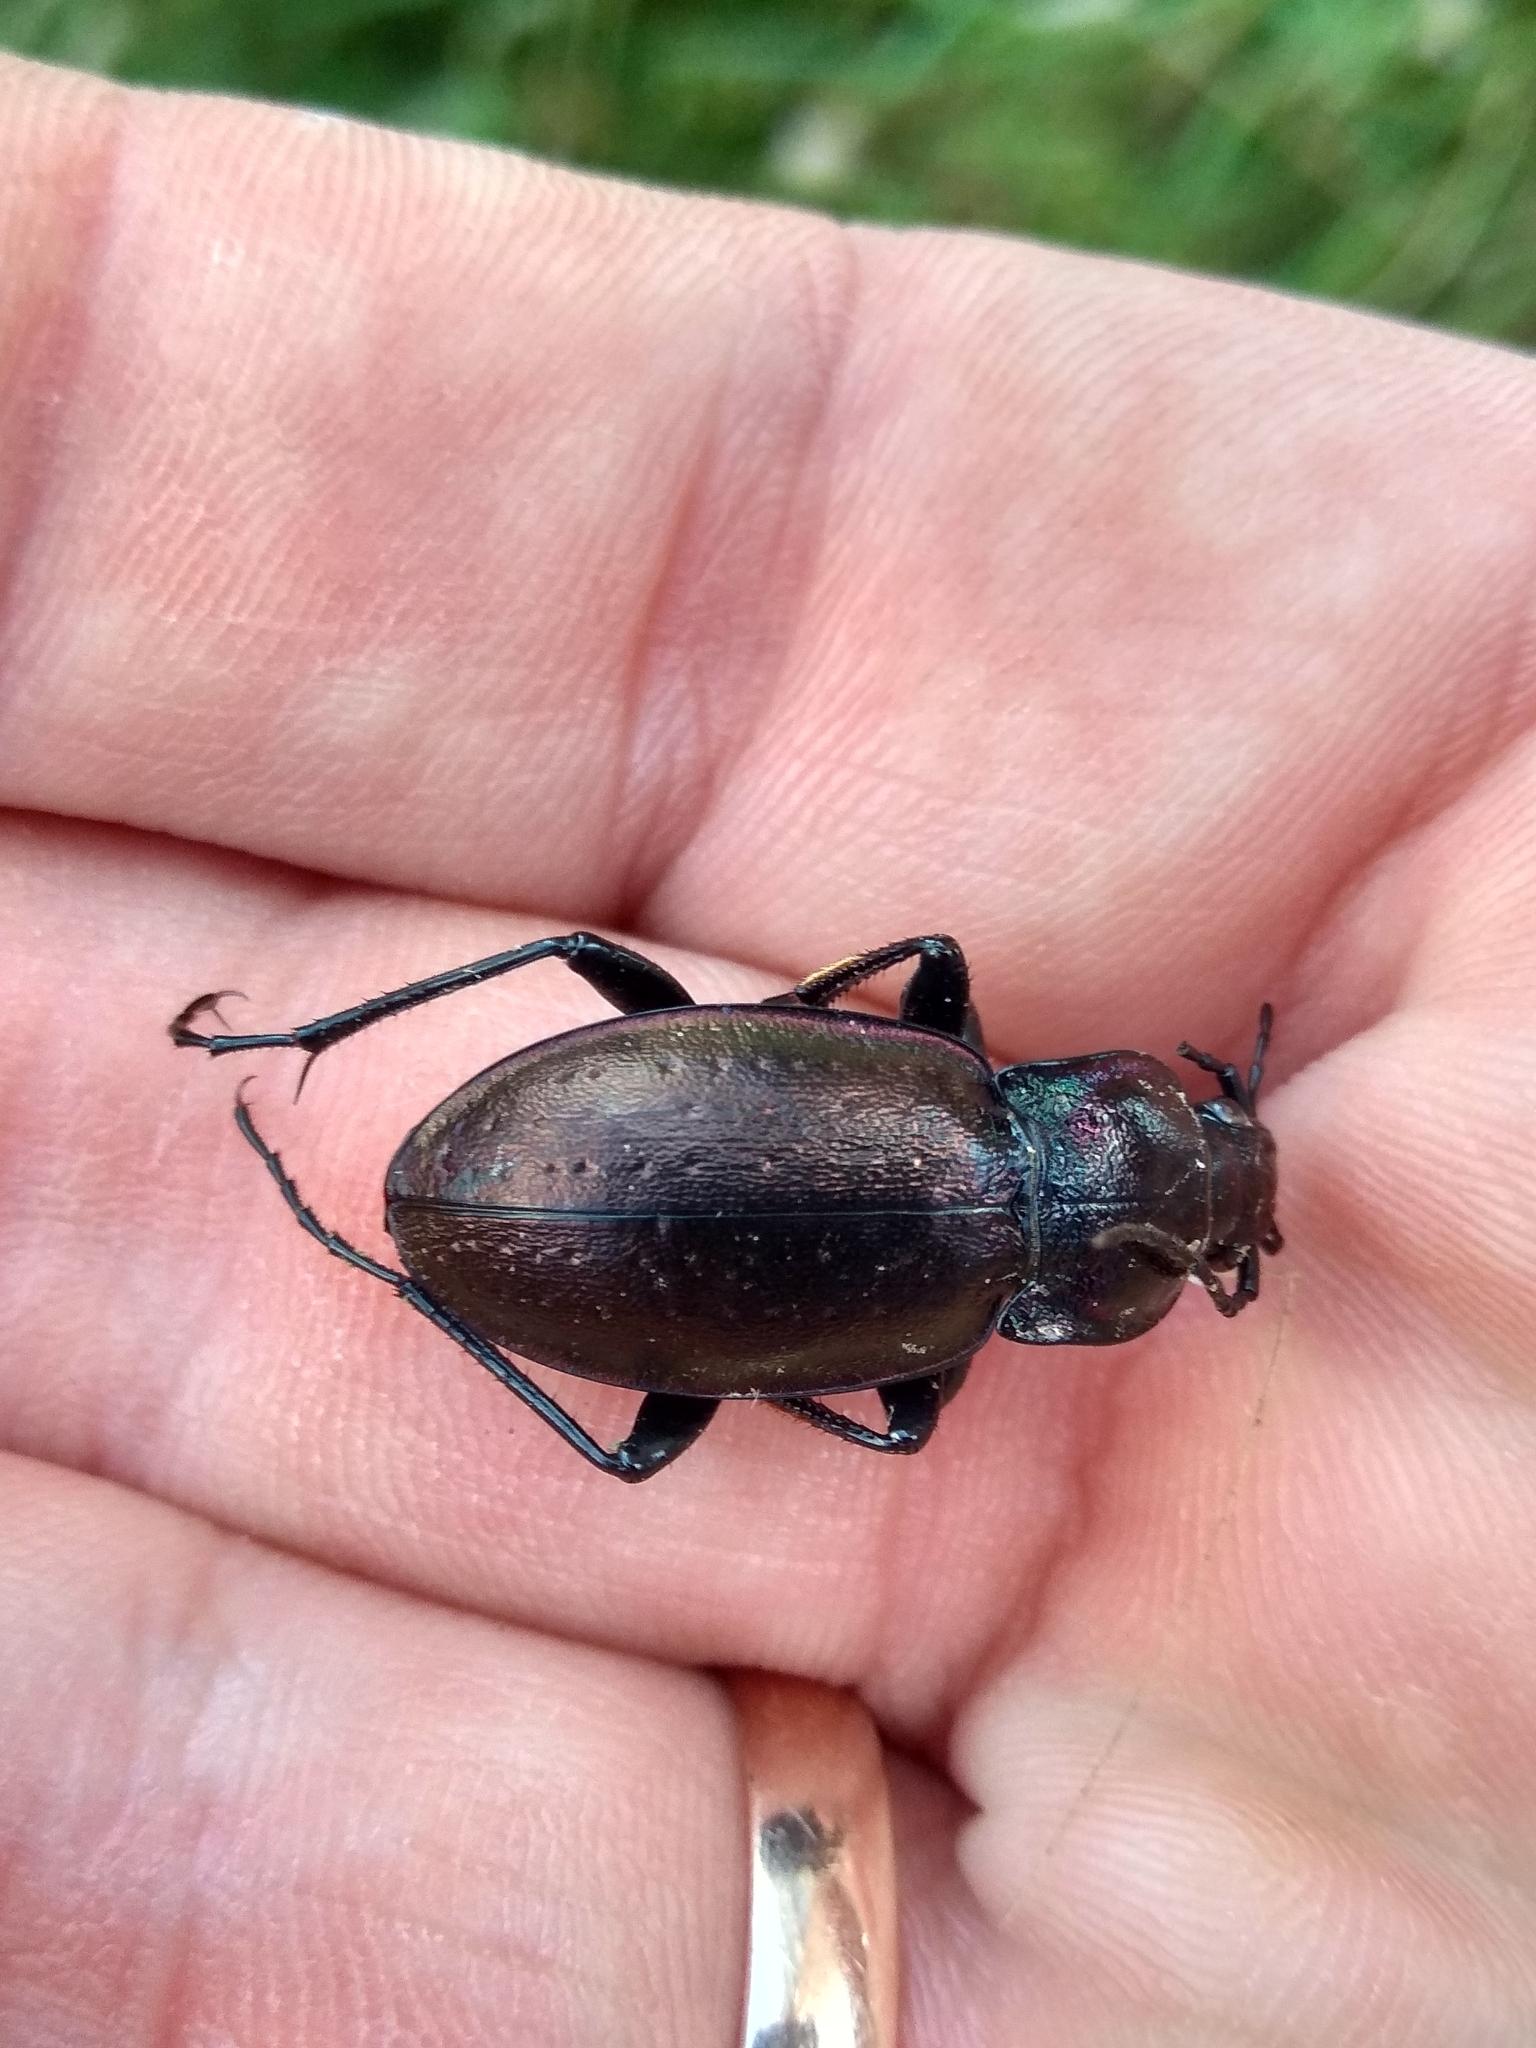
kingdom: Animalia
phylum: Arthropoda
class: Insecta
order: Coleoptera
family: Carabidae
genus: Carabus
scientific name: Carabus nemoralis
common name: European ground beetle
